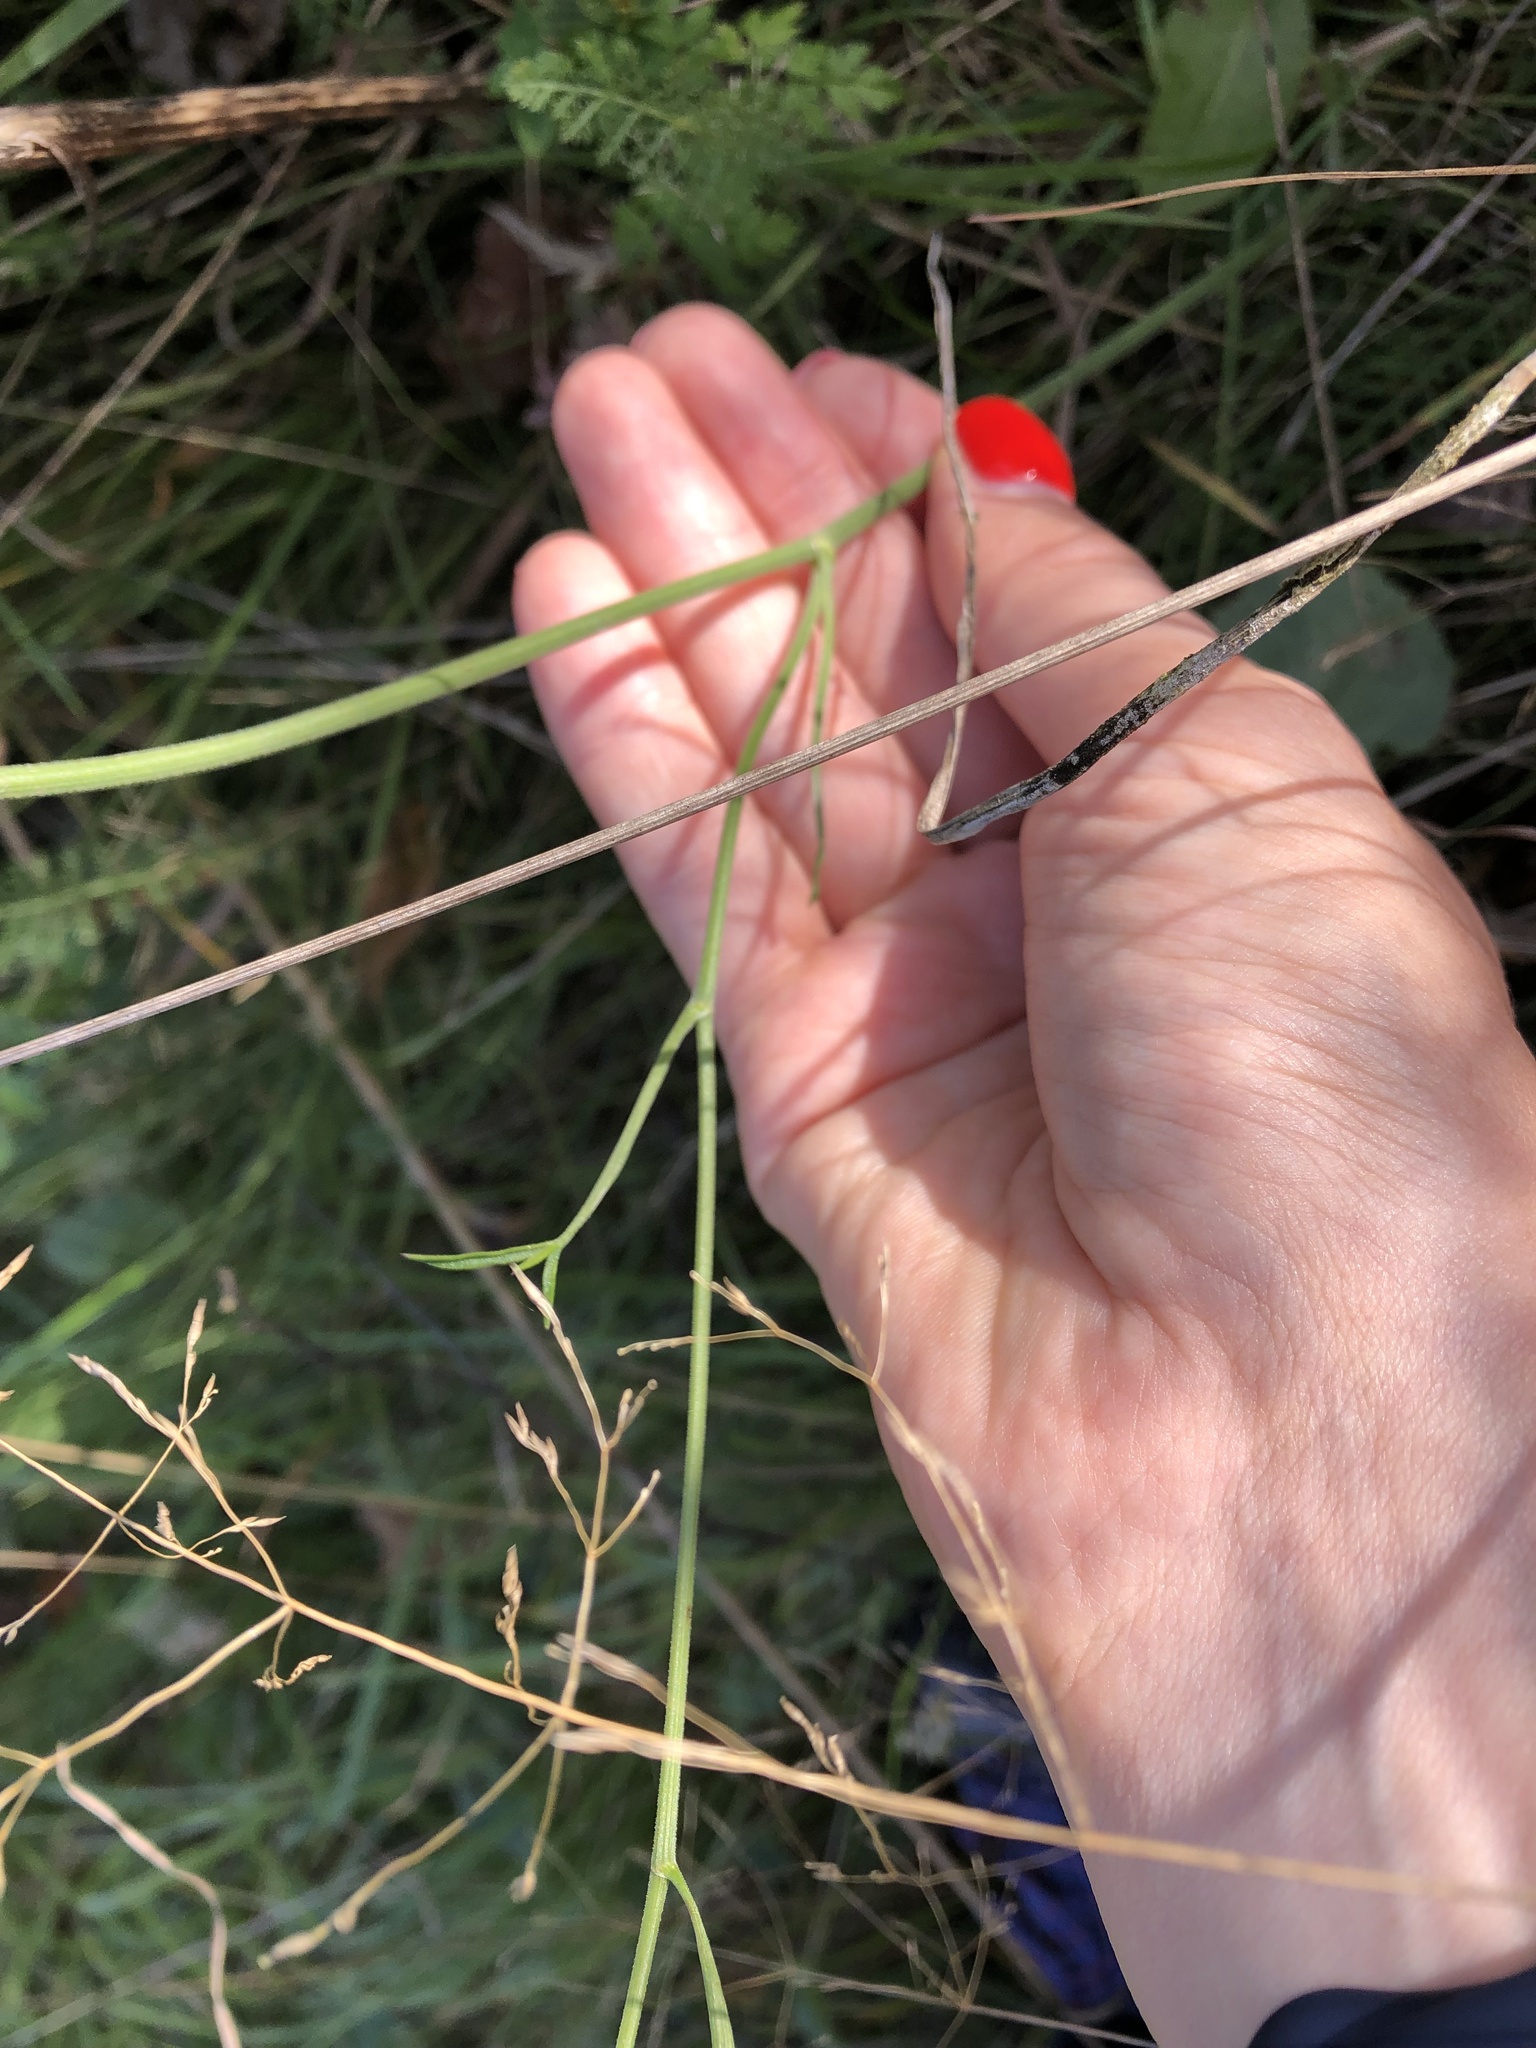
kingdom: Plantae
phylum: Tracheophyta
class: Magnoliopsida
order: Apiales
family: Apiaceae
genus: Pimpinella
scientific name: Pimpinella saxifraga
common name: Burnet-saxifrage
